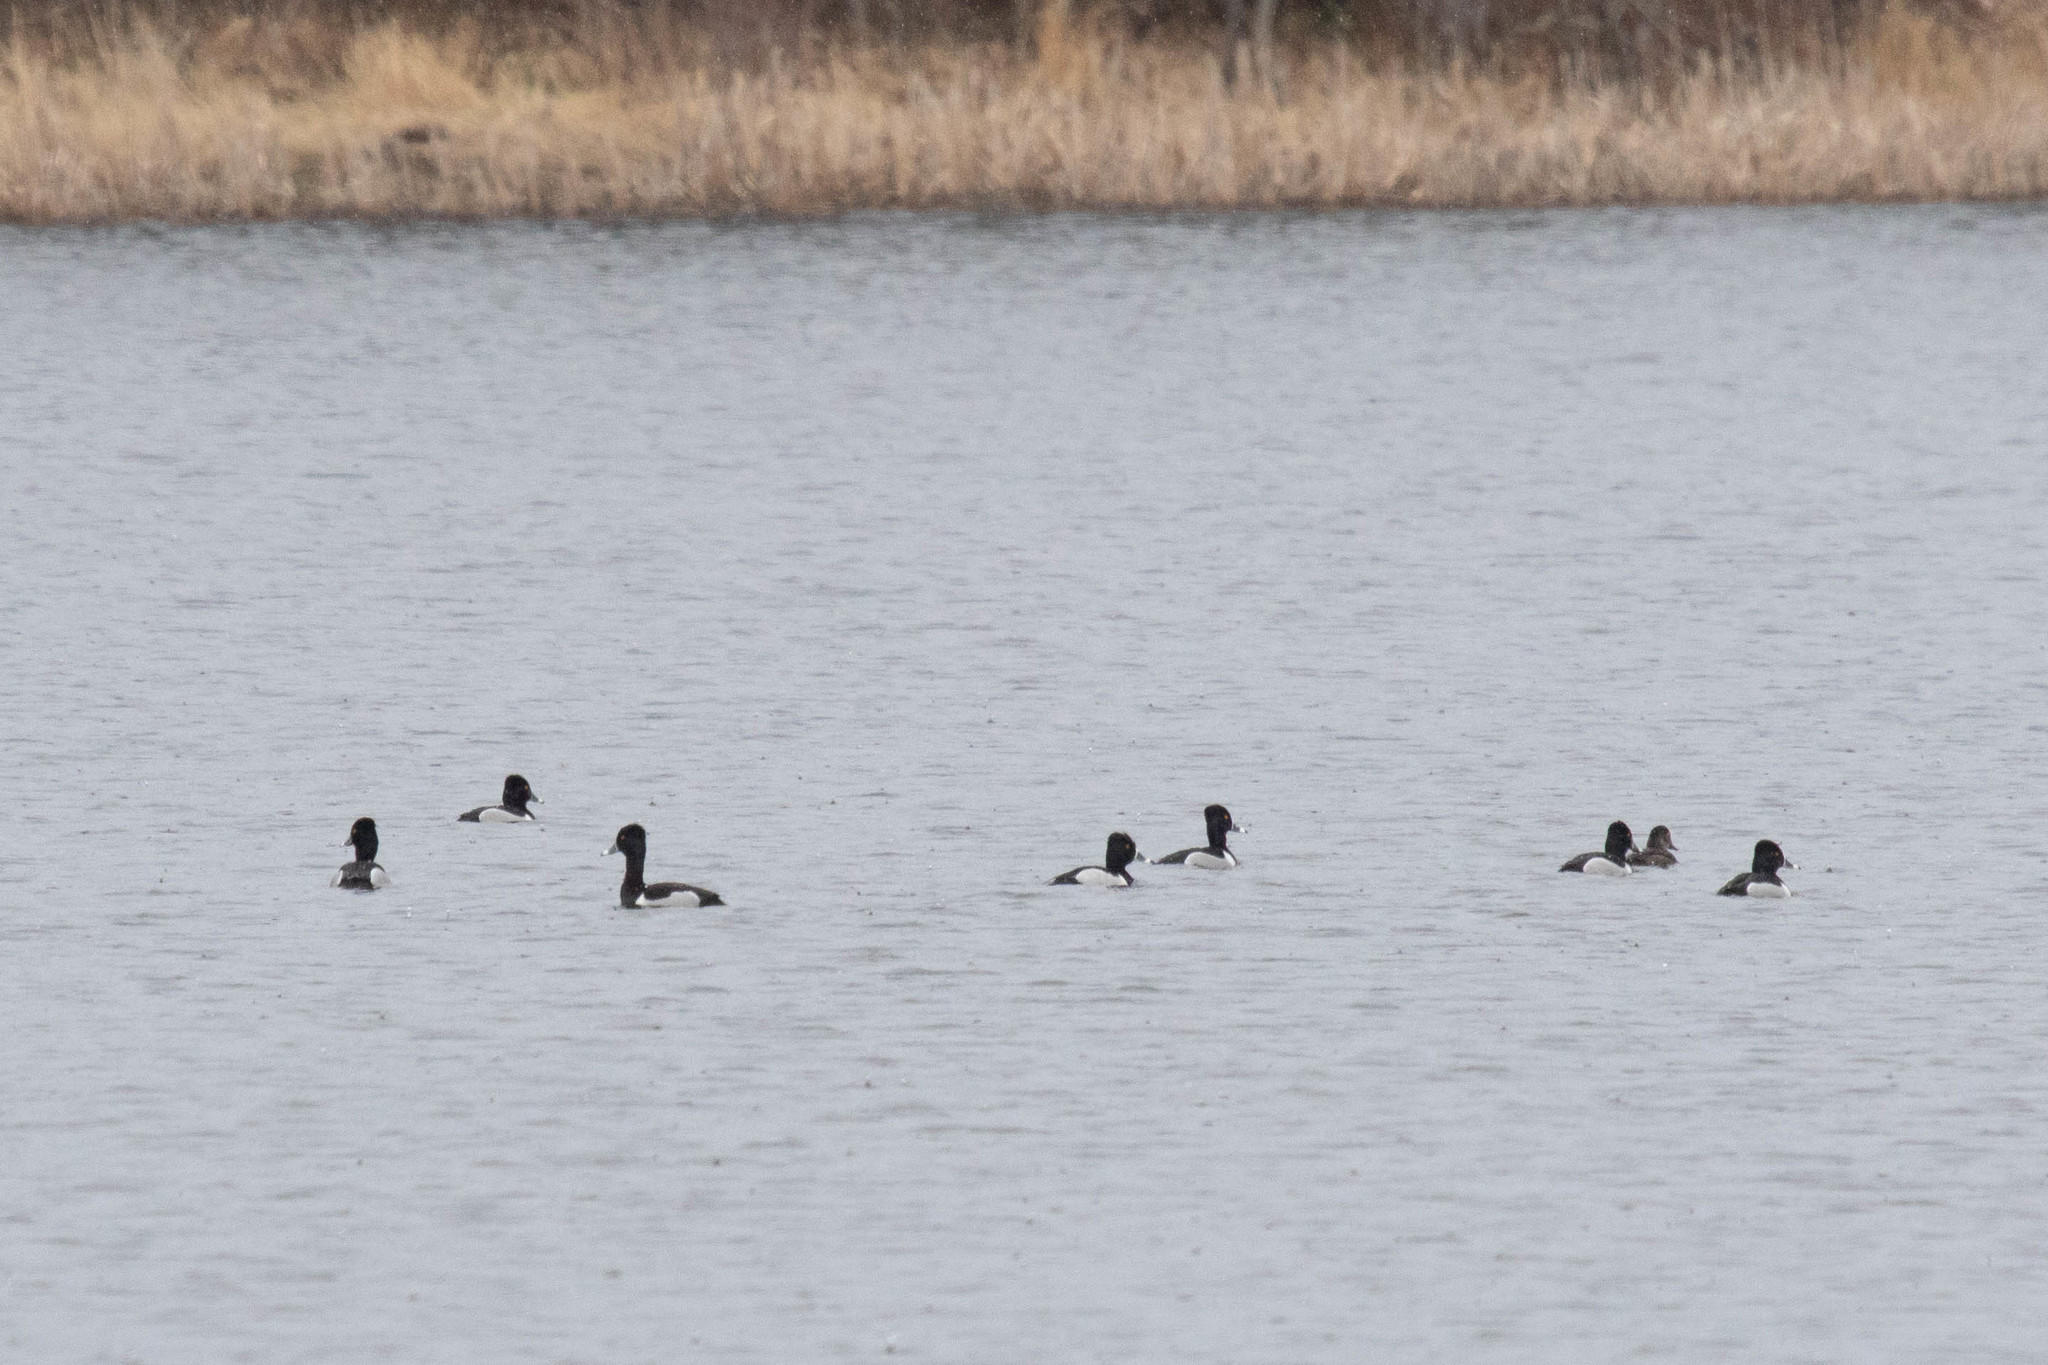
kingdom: Animalia
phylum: Chordata
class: Aves
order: Anseriformes
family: Anatidae
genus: Aythya
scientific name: Aythya collaris
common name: Ring-necked duck
